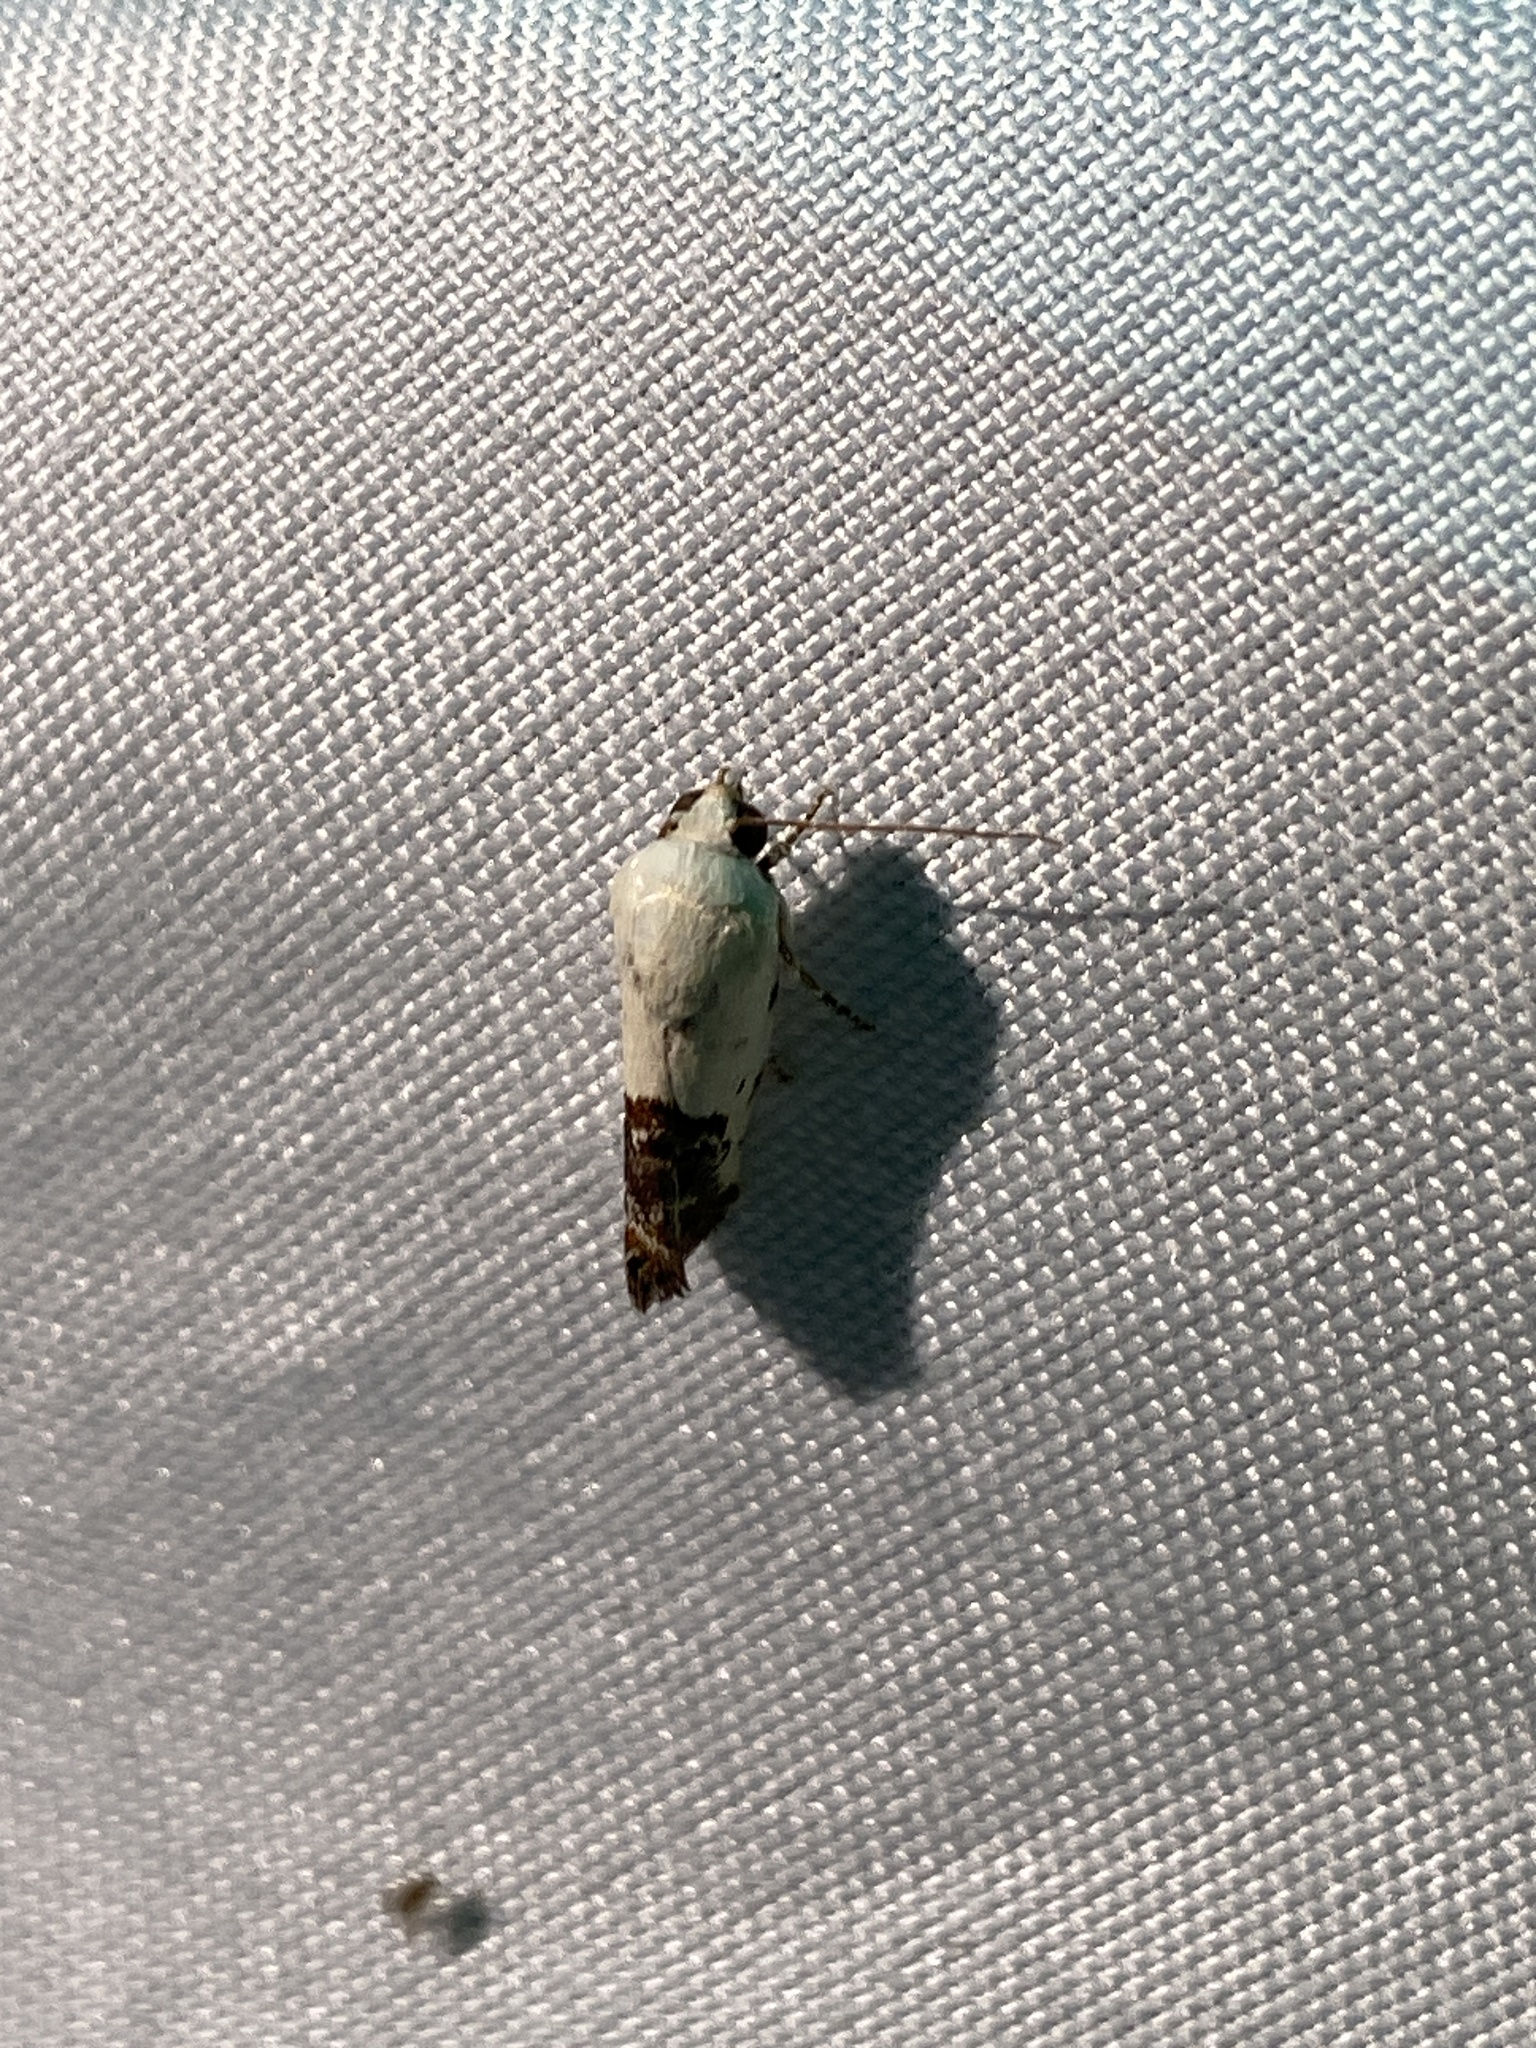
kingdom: Animalia
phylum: Arthropoda
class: Insecta
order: Lepidoptera
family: Noctuidae
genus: Acontia
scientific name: Acontia aprica
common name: Nun
